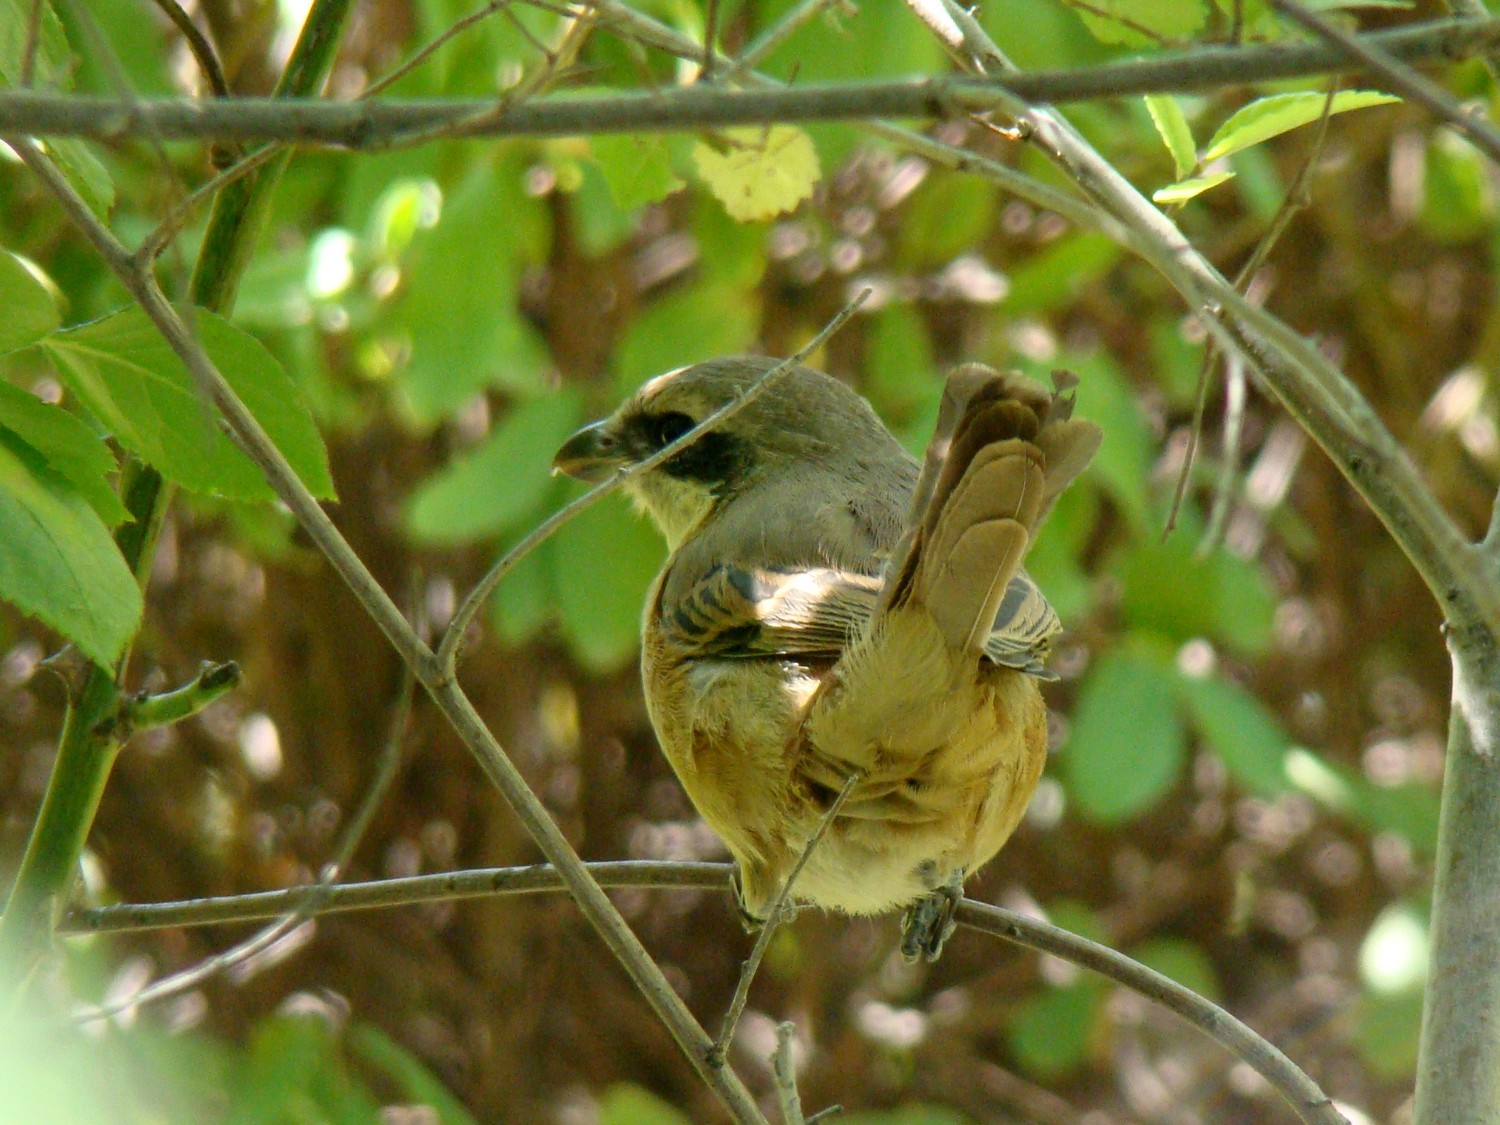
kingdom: Animalia
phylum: Chordata
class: Aves
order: Passeriformes
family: Laniidae
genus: Lanius
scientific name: Lanius isabellinus
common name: Isabelline shrike
